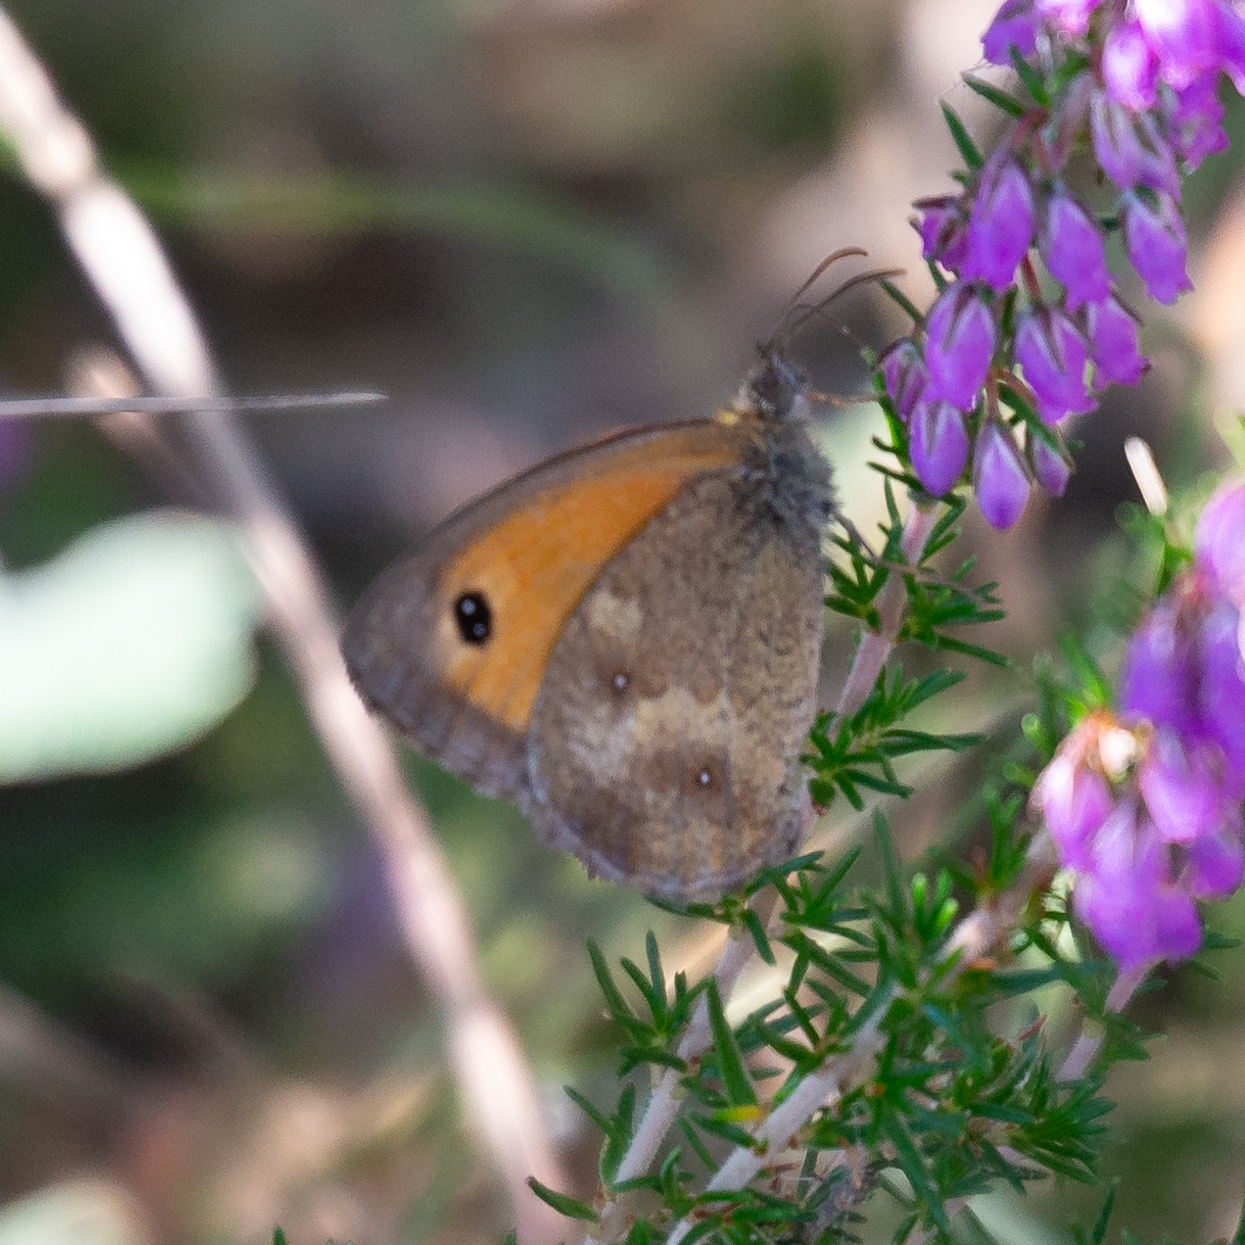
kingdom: Animalia
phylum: Arthropoda
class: Insecta
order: Lepidoptera
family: Nymphalidae
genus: Pyronia
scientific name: Pyronia tithonus
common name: Gatekeeper
